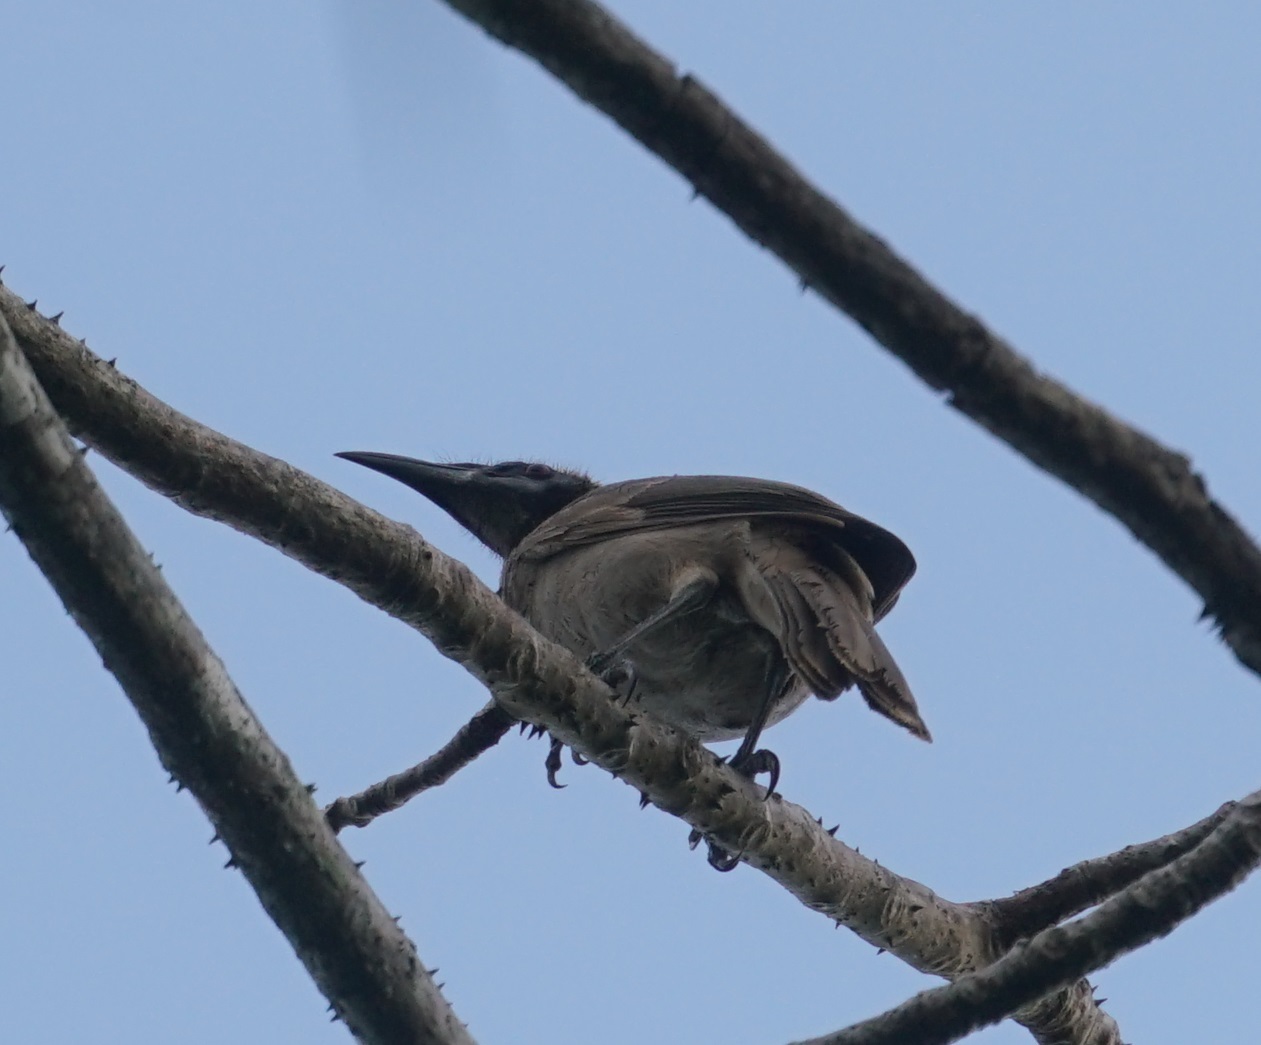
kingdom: Animalia
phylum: Chordata
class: Aves
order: Passeriformes
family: Meliphagidae
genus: Philemon
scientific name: Philemon buceroides
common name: Helmeted friarbird
